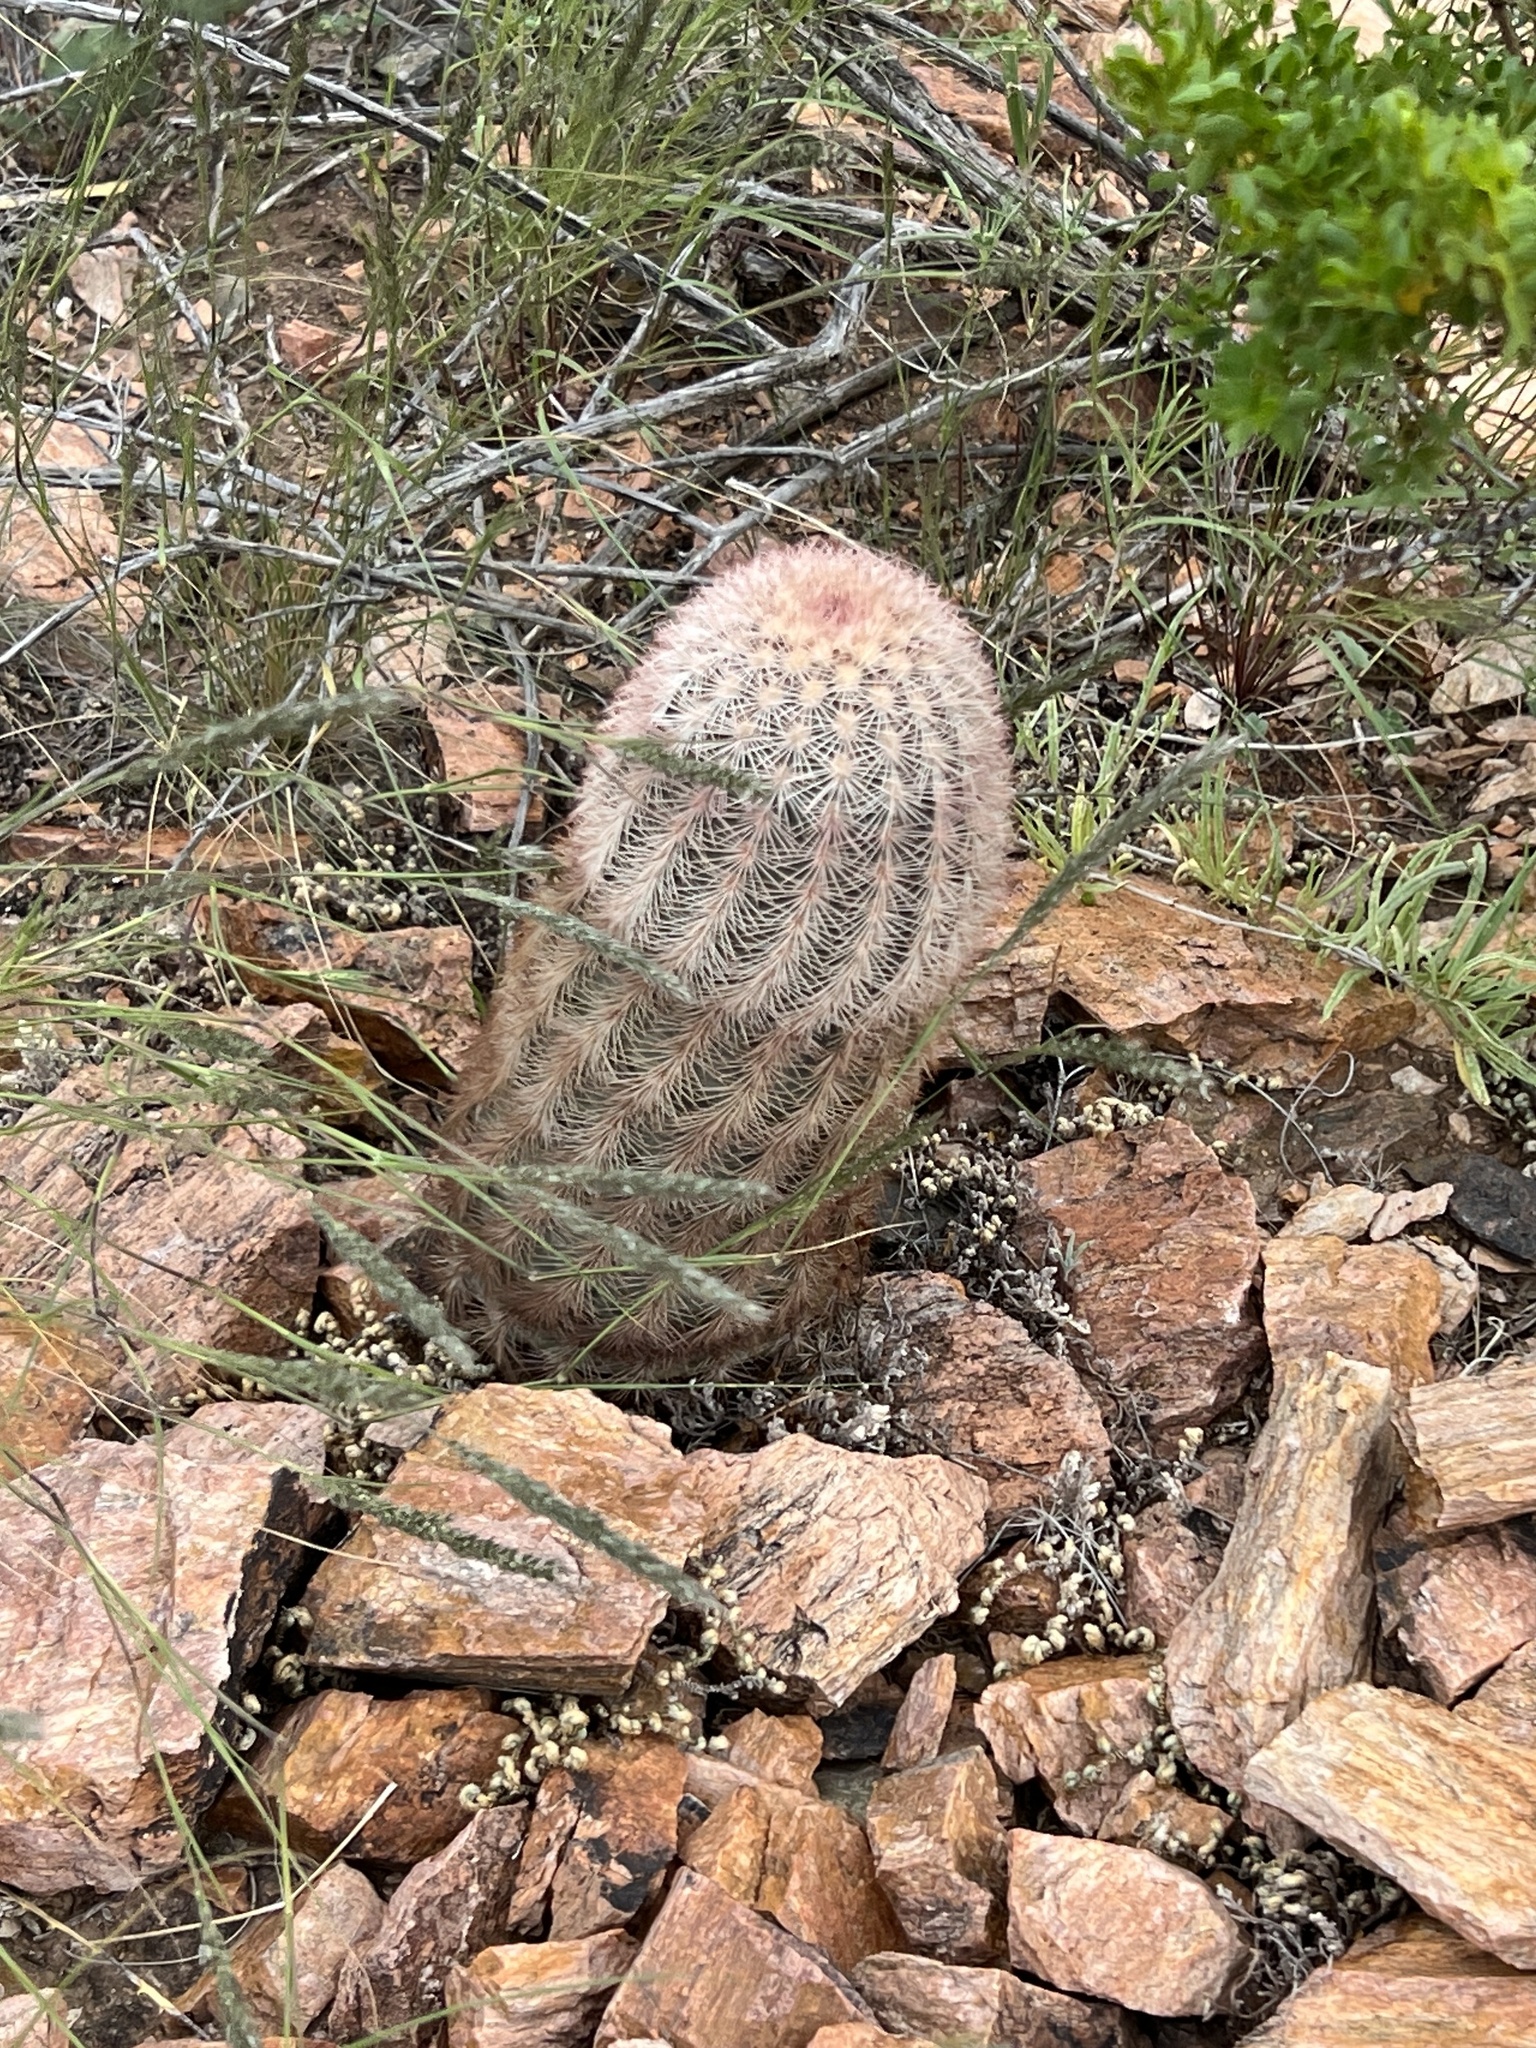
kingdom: Plantae
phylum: Tracheophyta
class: Magnoliopsida
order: Caryophyllales
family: Cactaceae
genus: Echinocereus
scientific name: Echinocereus dasyacanthus
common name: Spiny hedgehog cactus
